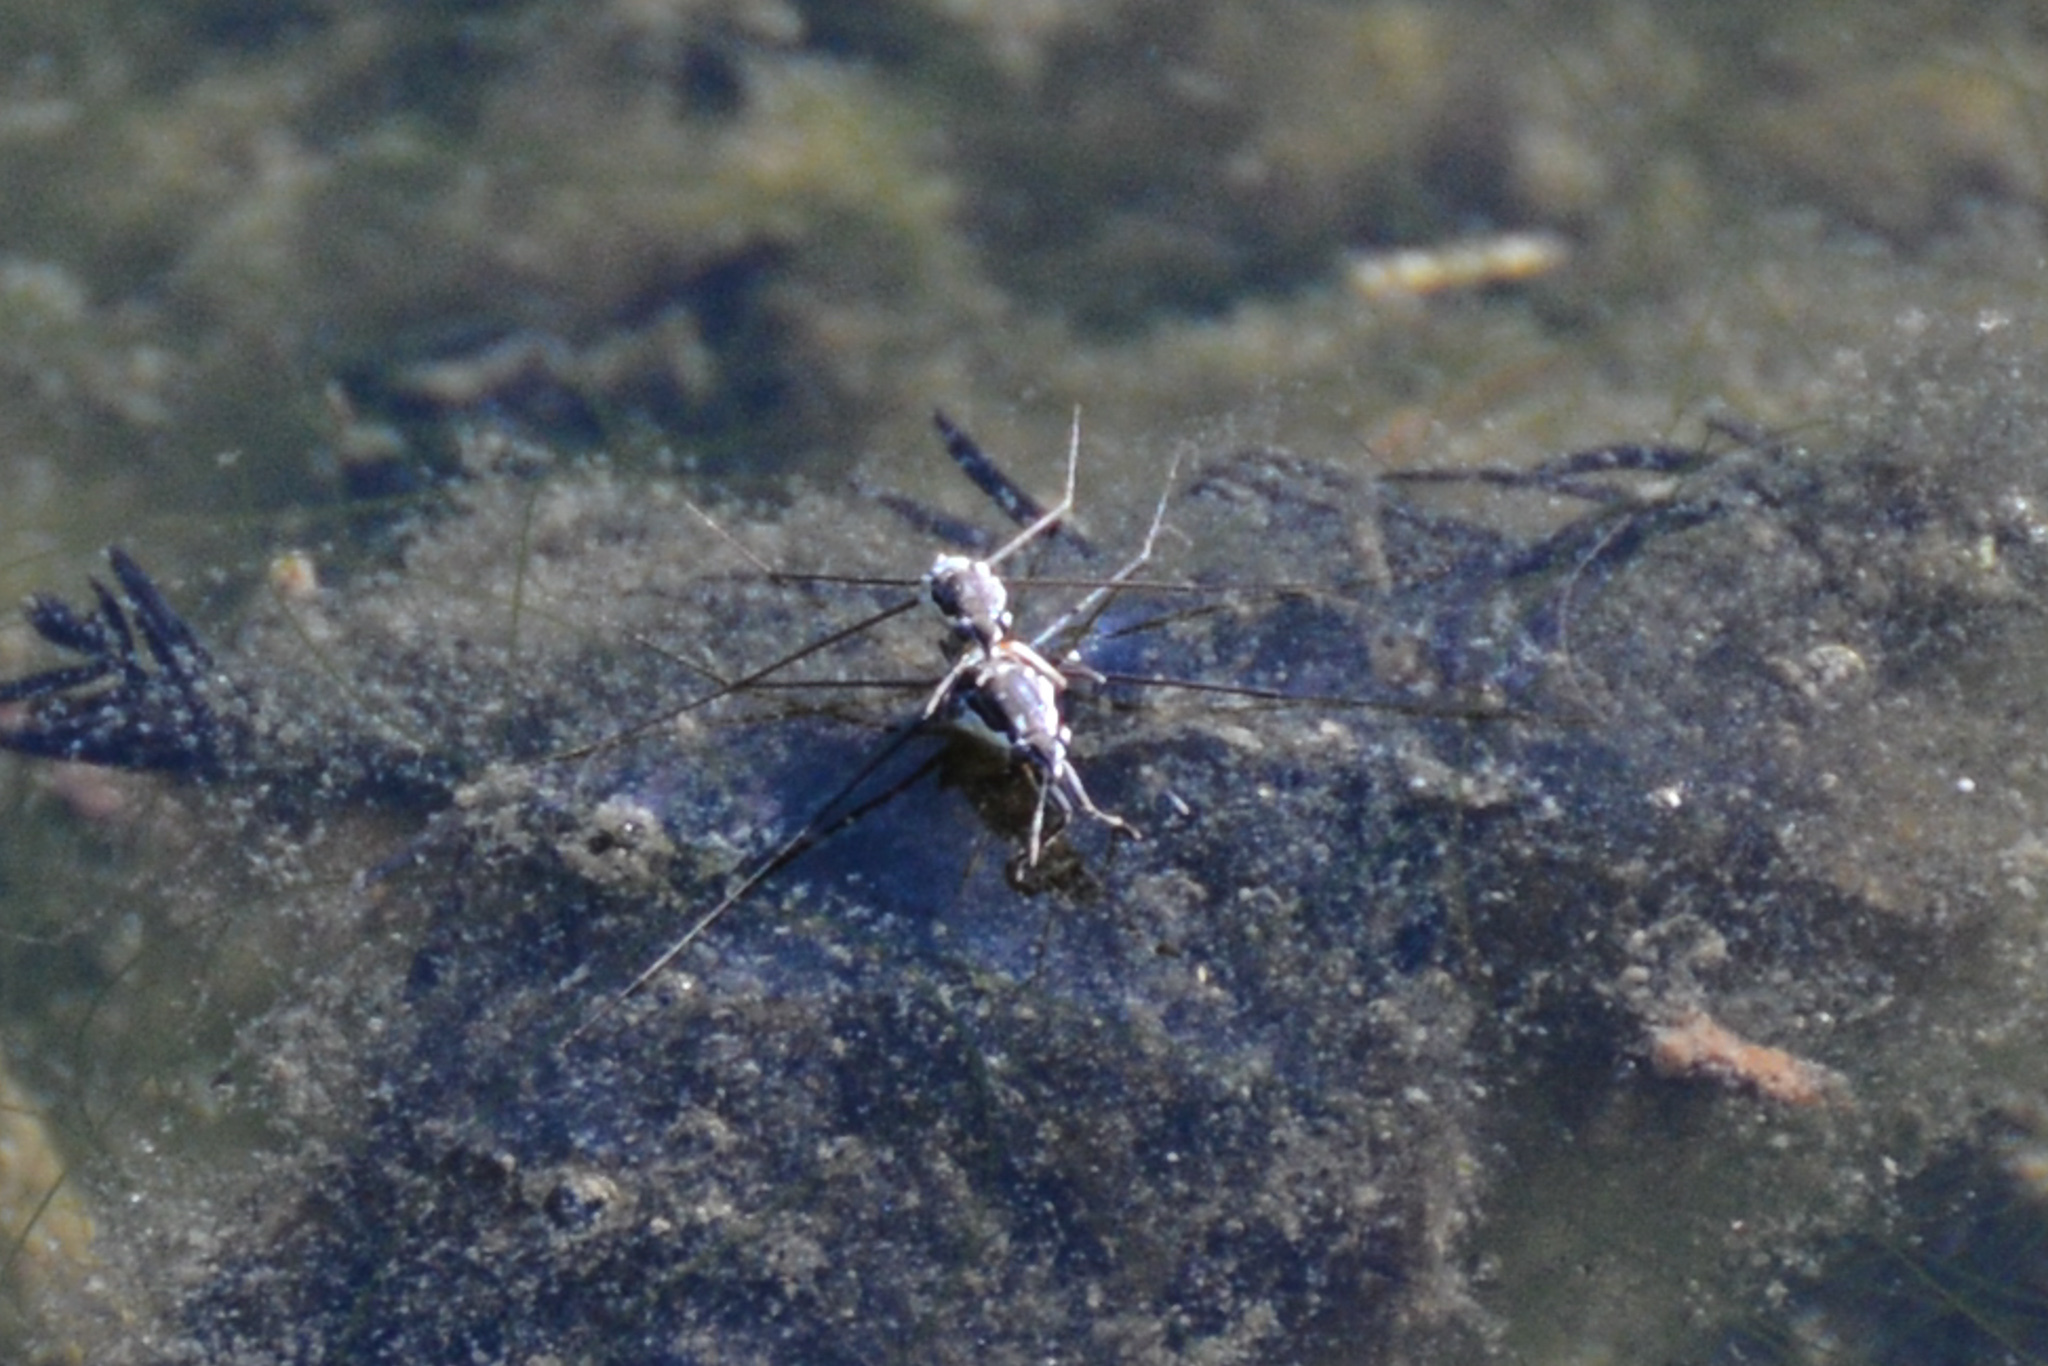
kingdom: Animalia
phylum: Arthropoda
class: Insecta
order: Hemiptera
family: Gerridae
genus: Neogerris
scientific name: Neogerris hesione
